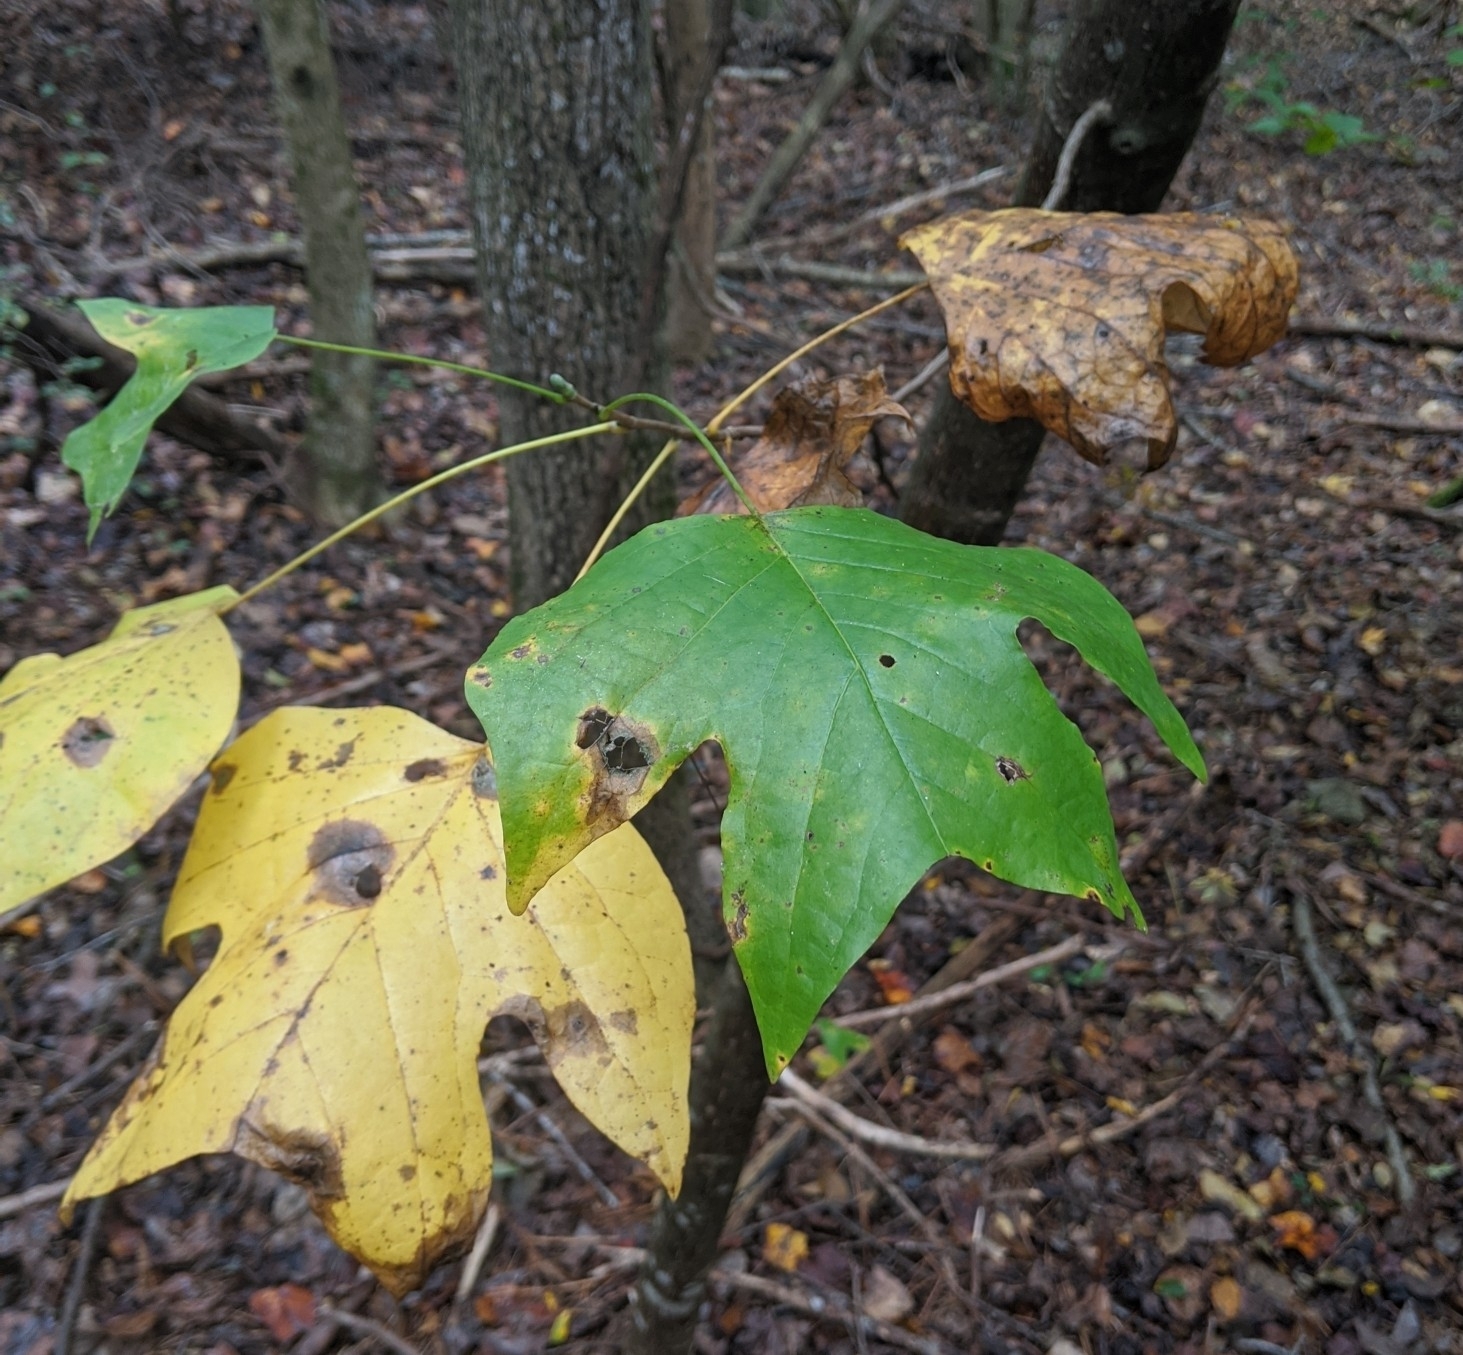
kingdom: Plantae
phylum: Tracheophyta
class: Magnoliopsida
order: Magnoliales
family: Magnoliaceae
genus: Liriodendron
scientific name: Liriodendron tulipifera
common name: Tulip tree
